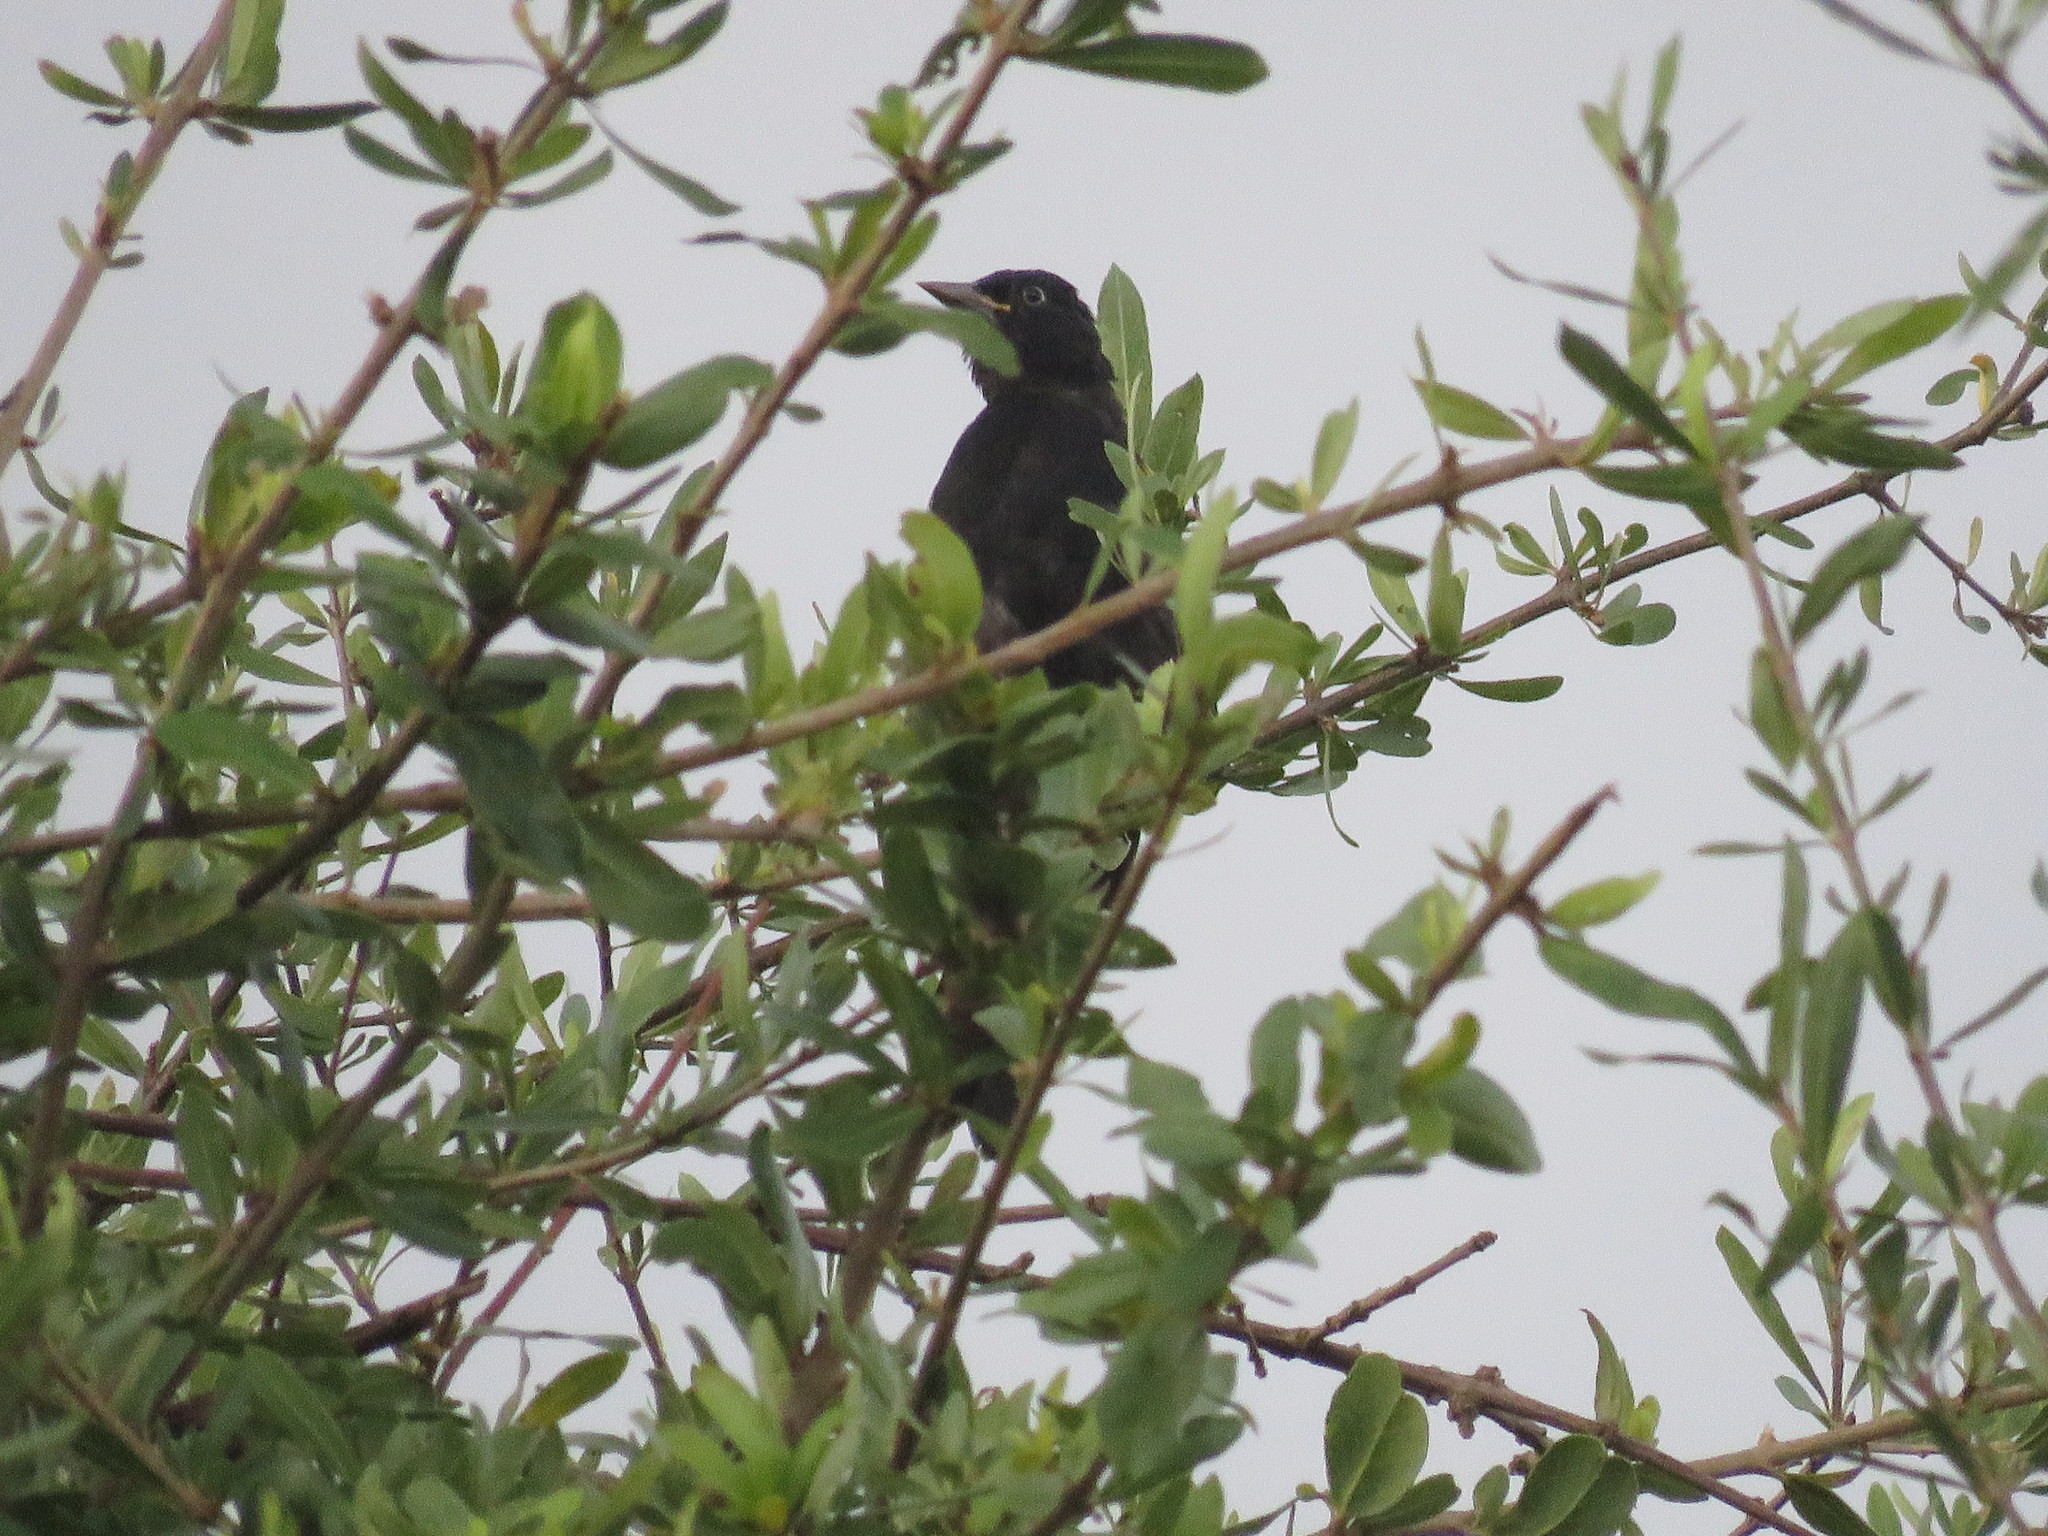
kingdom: Animalia
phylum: Chordata
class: Aves
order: Passeriformes
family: Icteridae
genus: Cacicus
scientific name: Cacicus chrysopterus
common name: Golden-winged cacique
